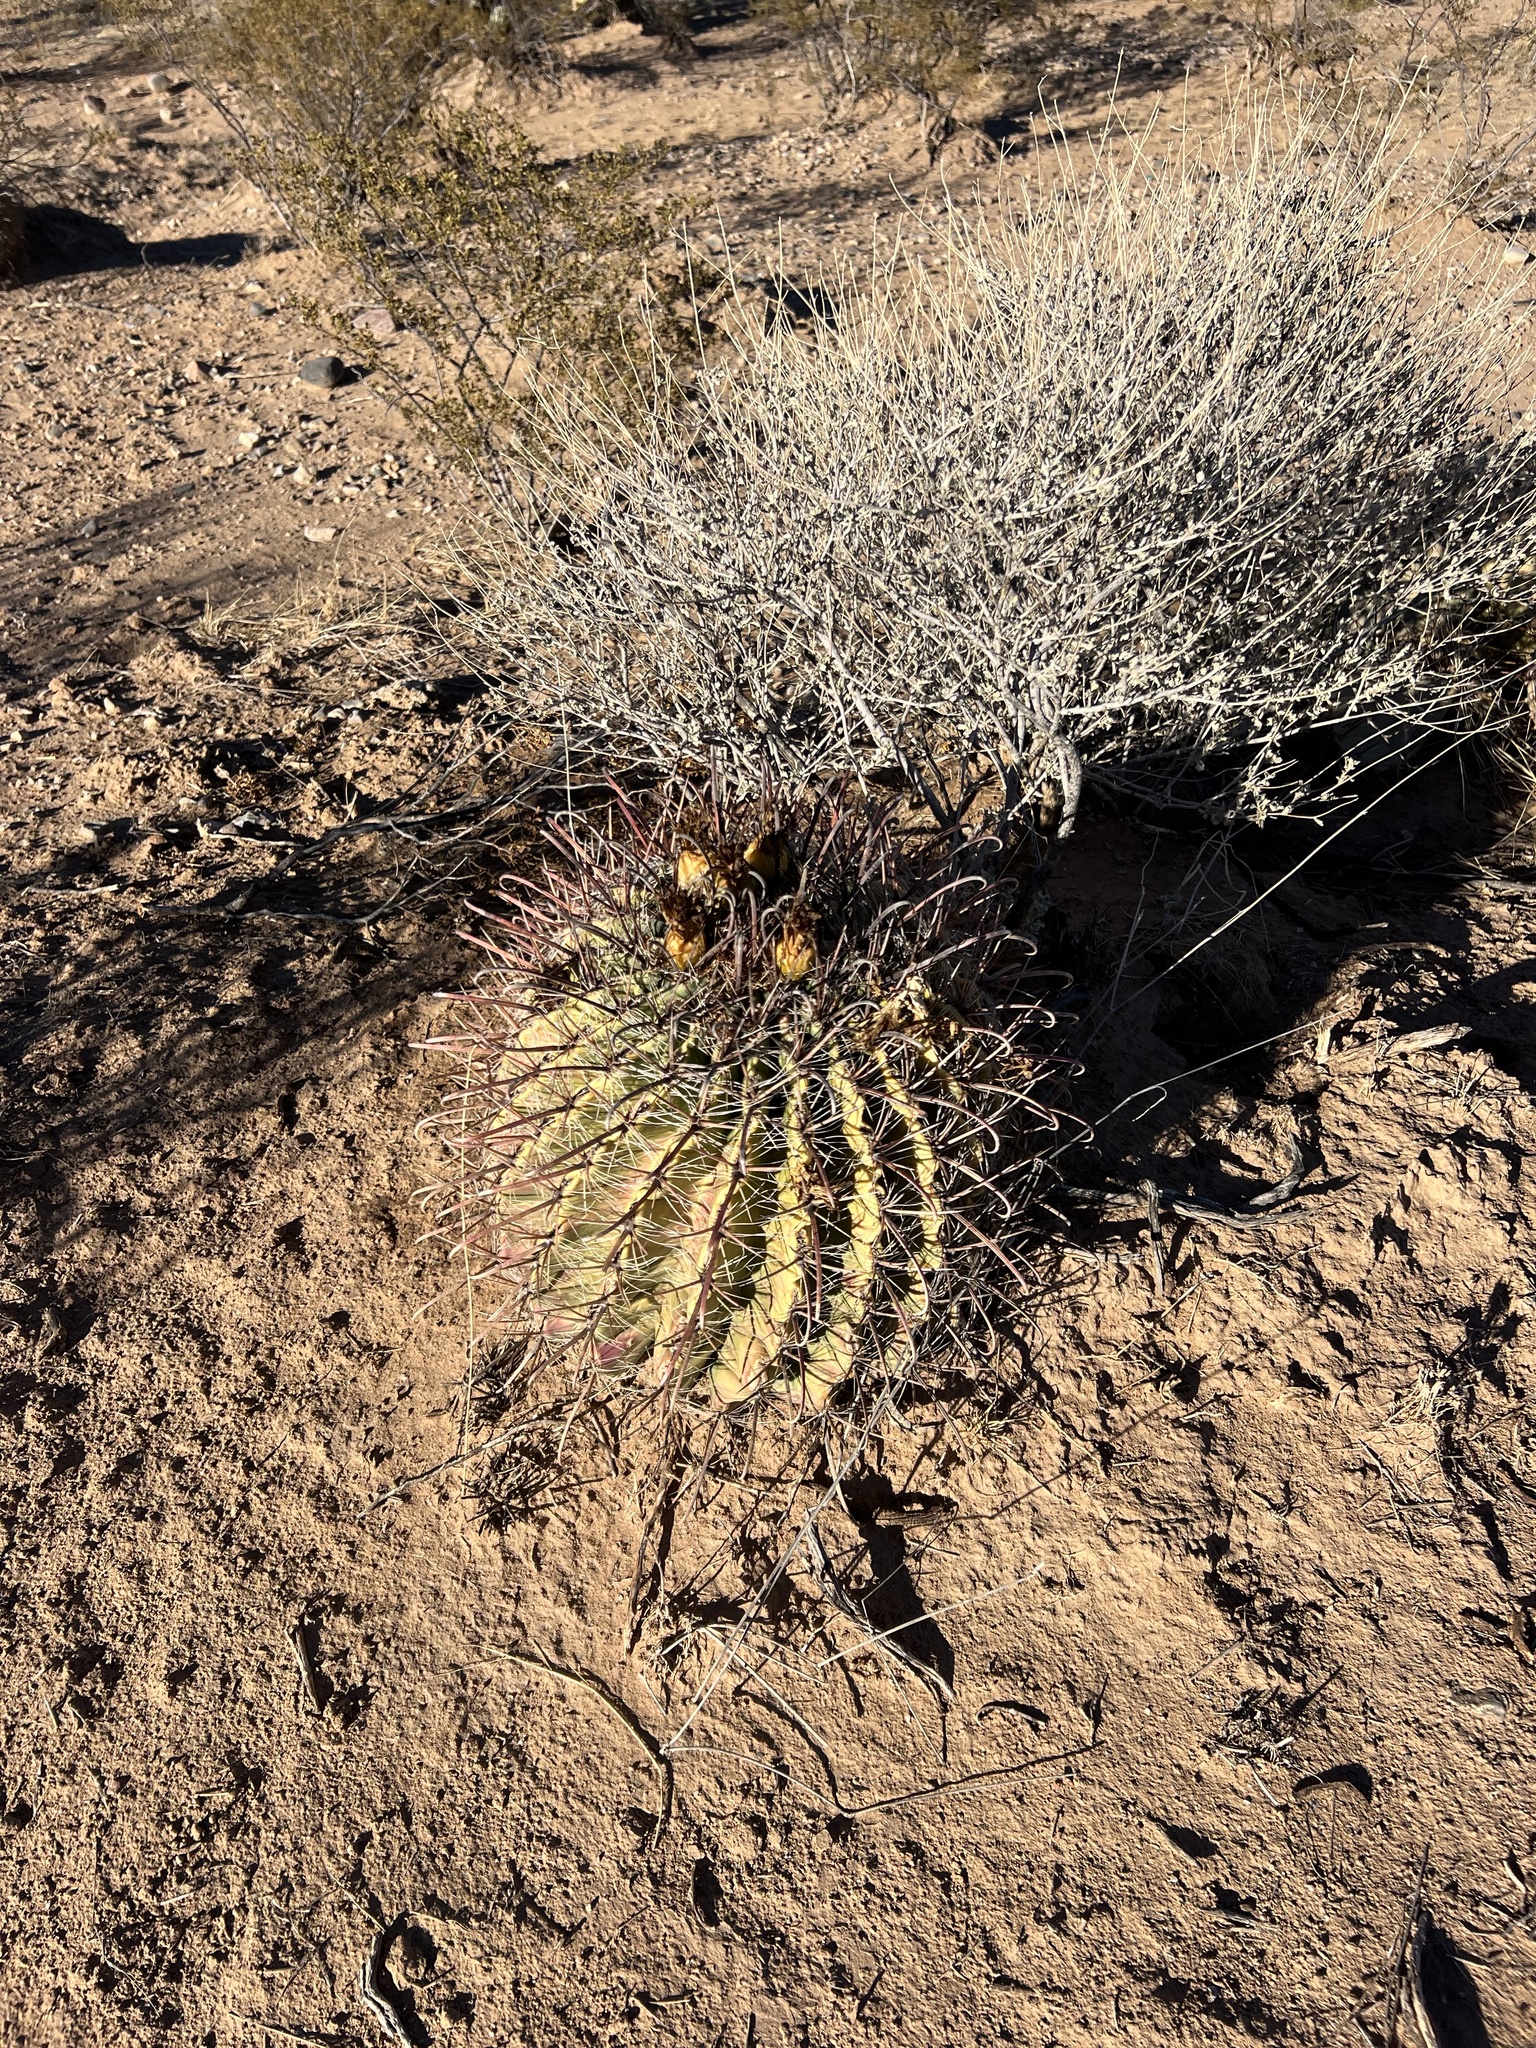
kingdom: Plantae
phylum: Tracheophyta
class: Magnoliopsida
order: Caryophyllales
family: Cactaceae
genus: Ferocactus
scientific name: Ferocactus wislizeni
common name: Candy barrel cactus
